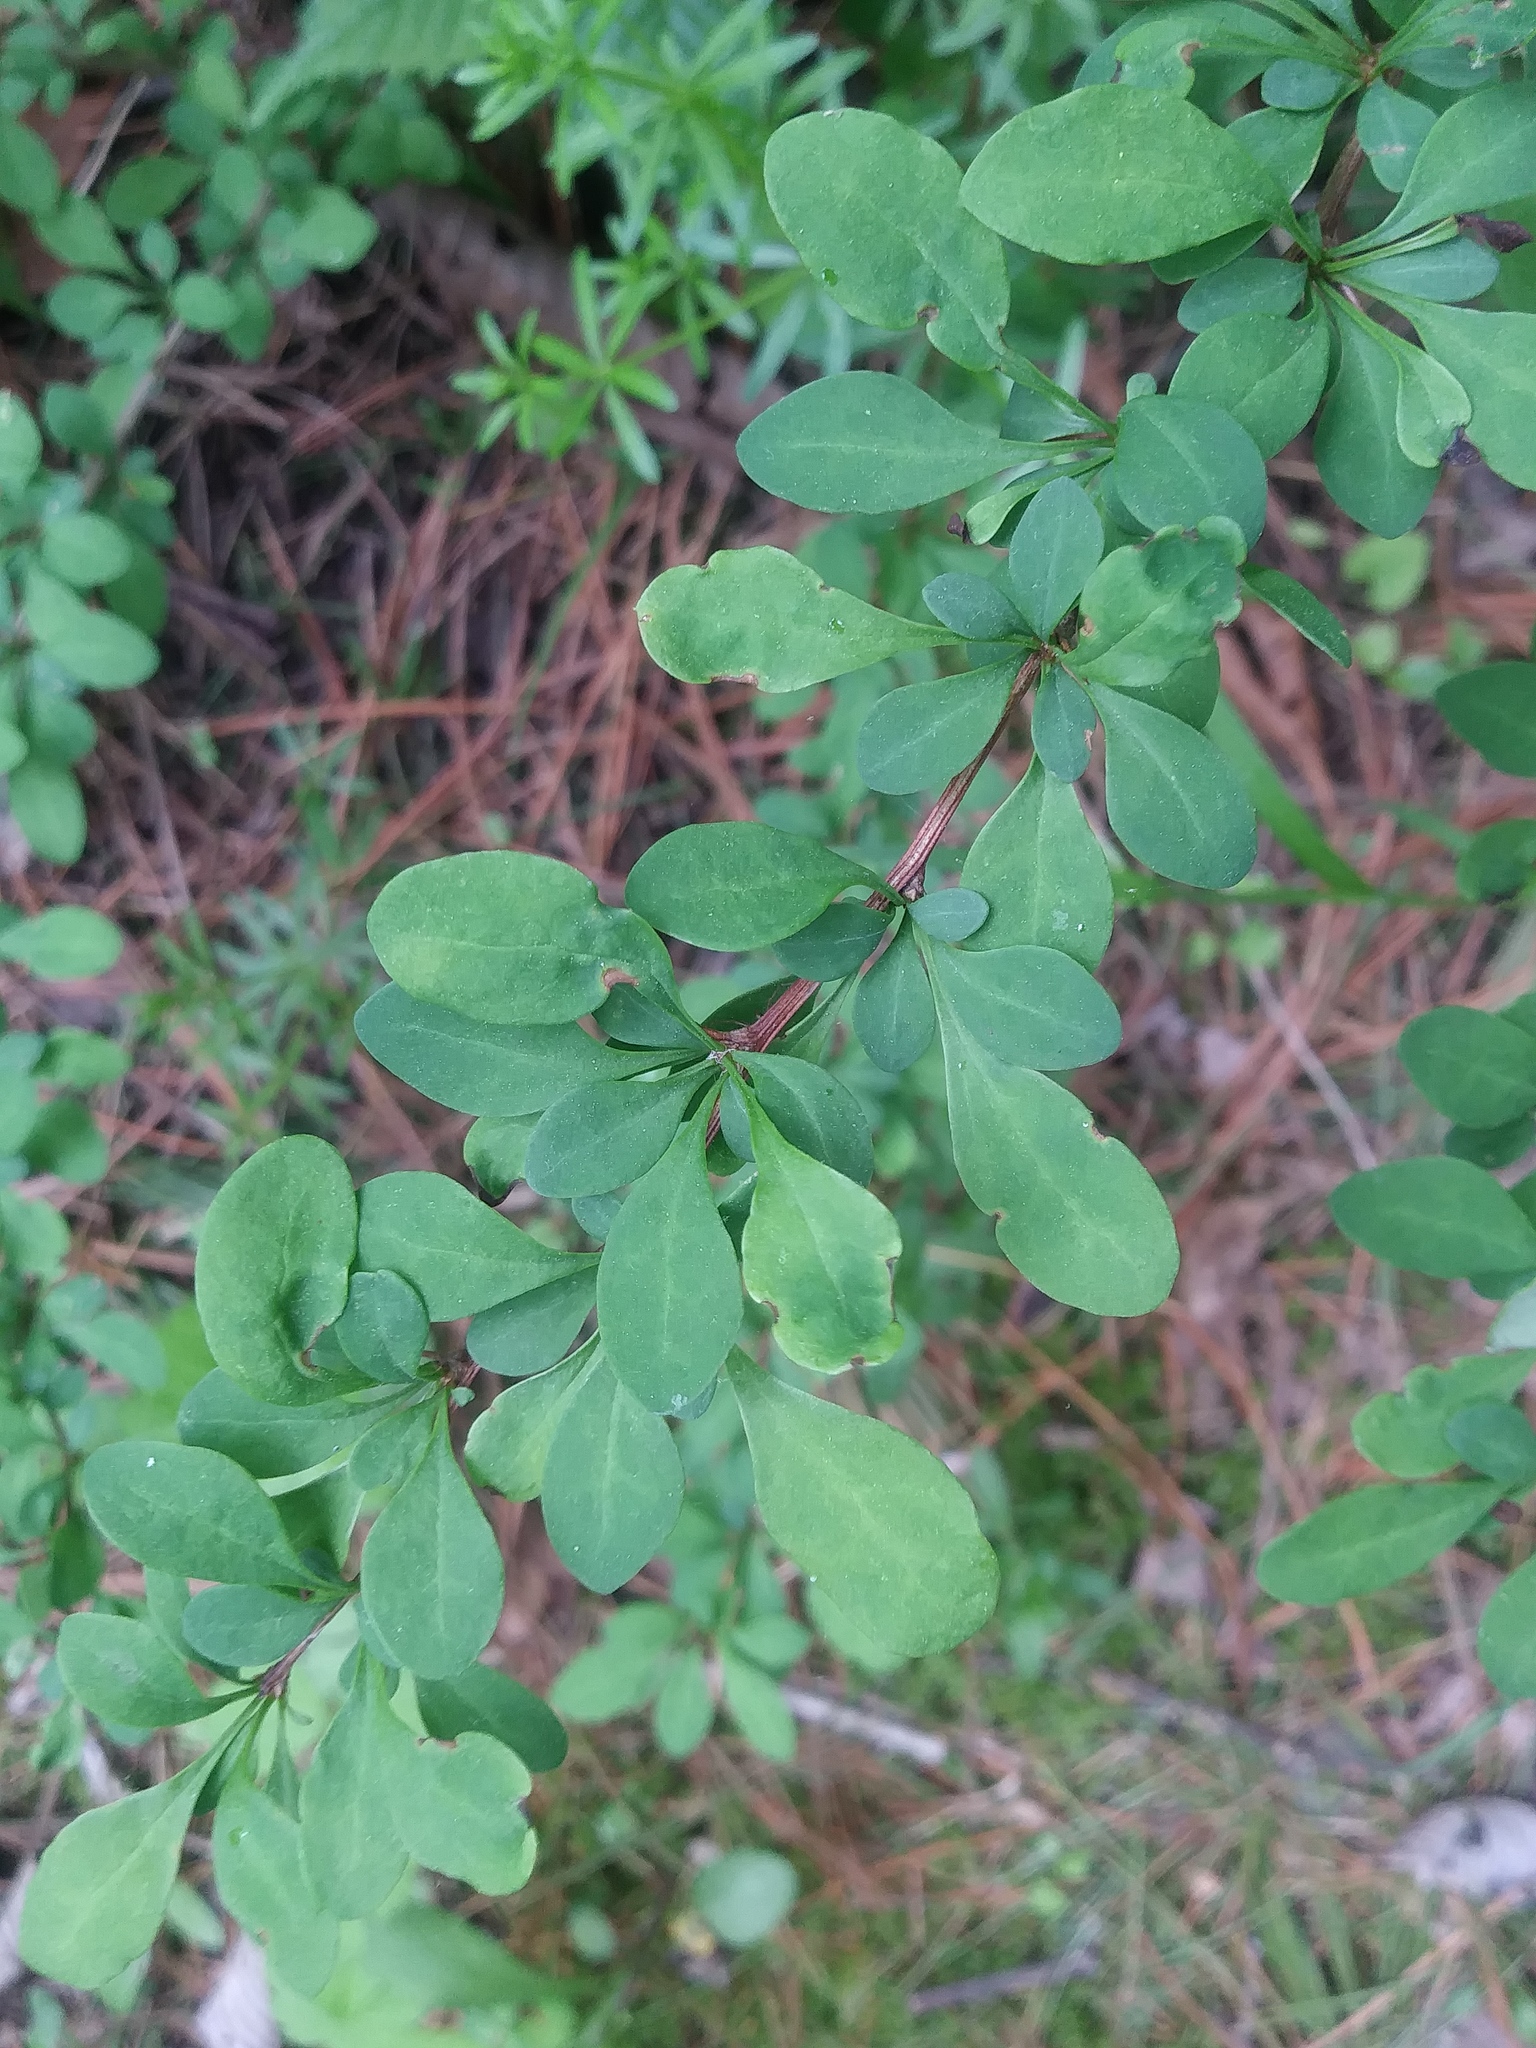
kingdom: Plantae
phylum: Tracheophyta
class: Magnoliopsida
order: Ranunculales
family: Berberidaceae
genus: Berberis
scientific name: Berberis thunbergii
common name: Japanese barberry
